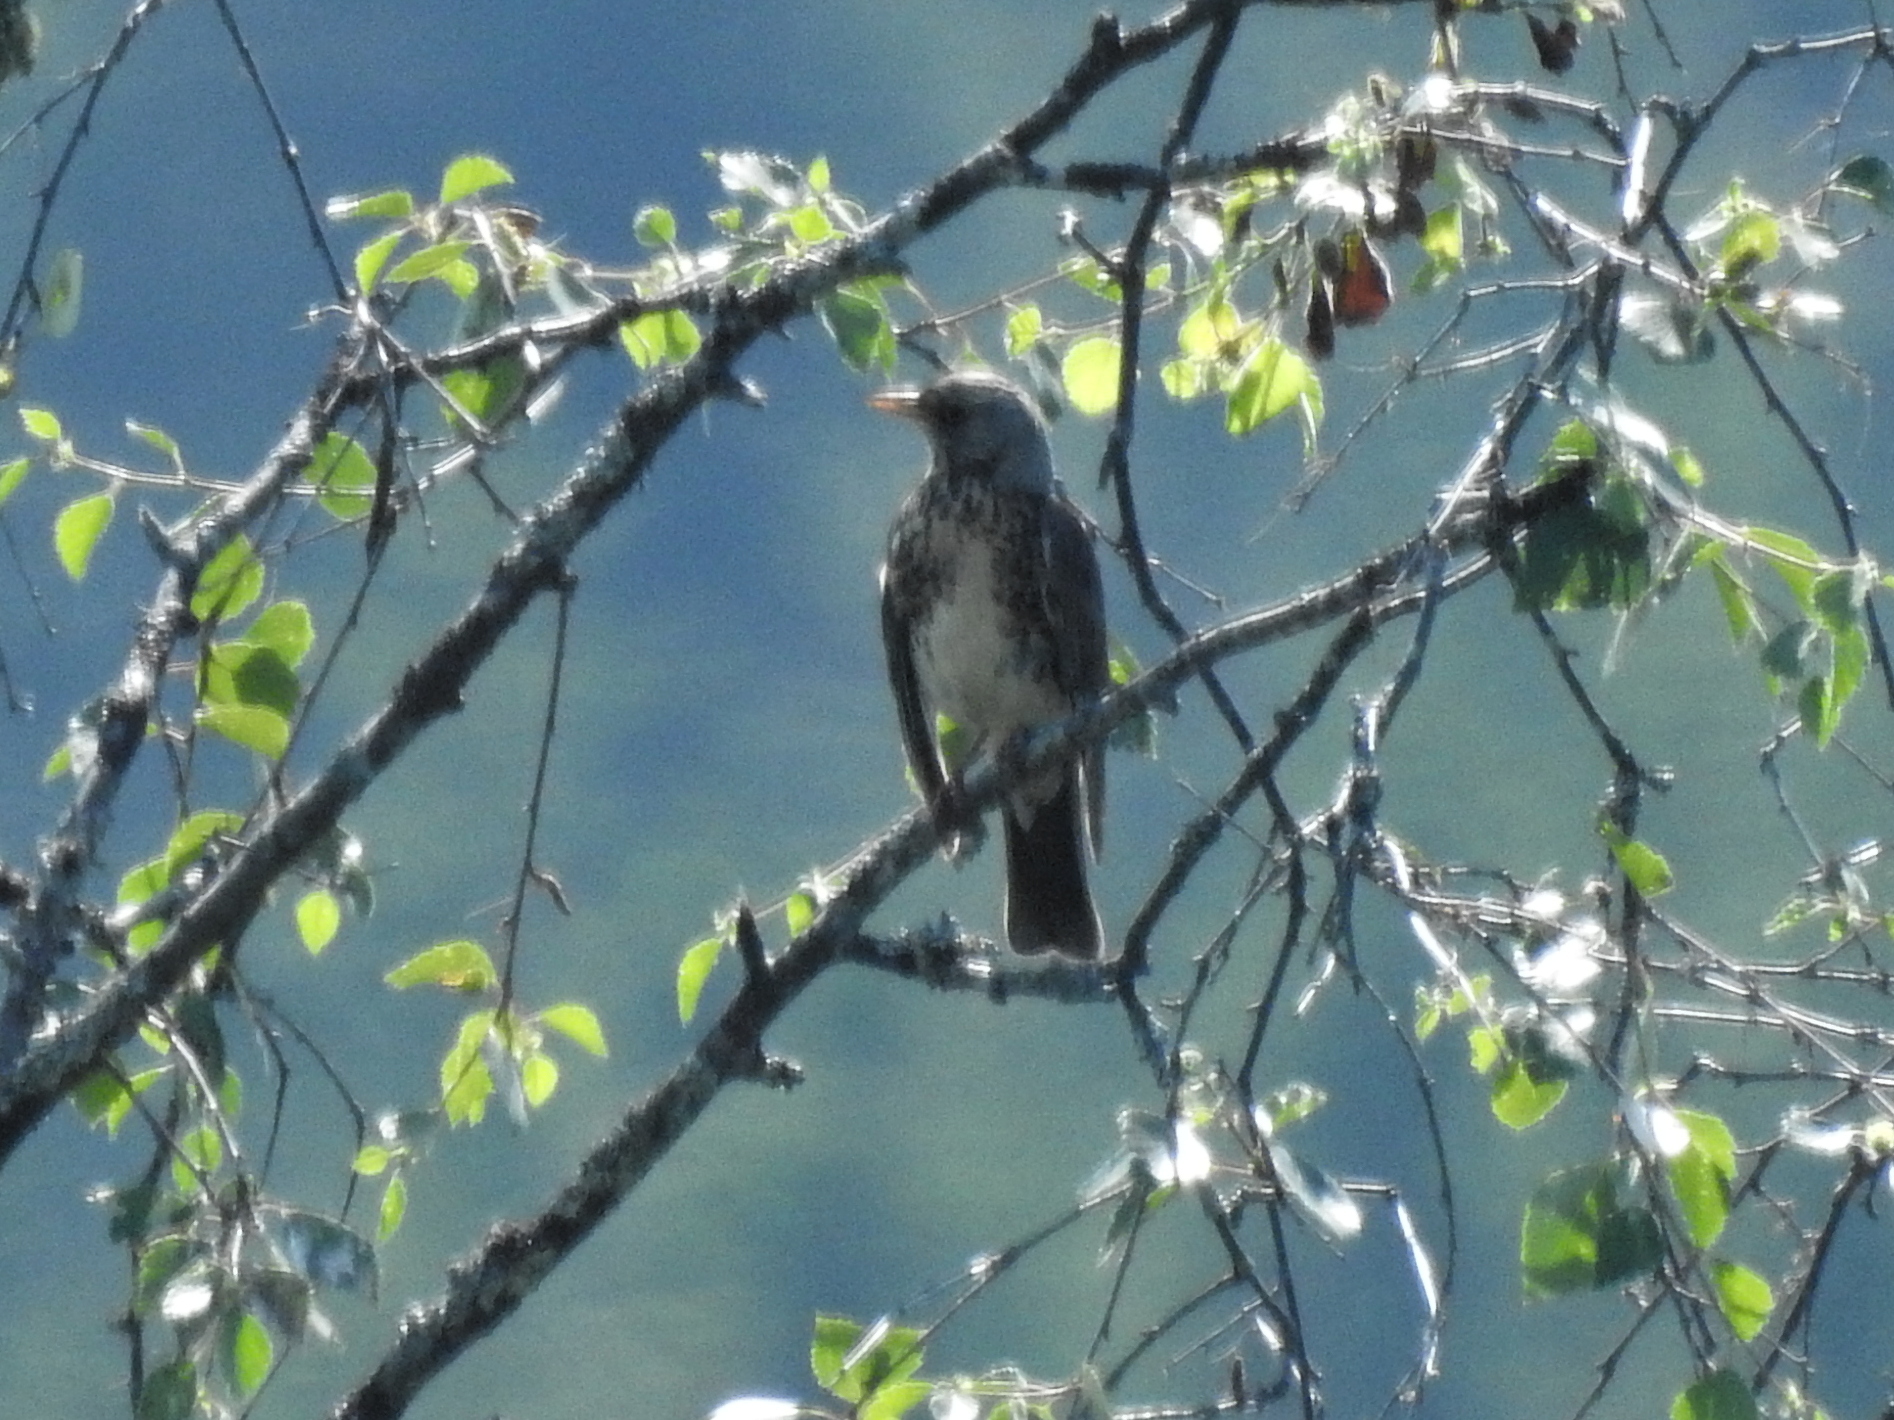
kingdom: Animalia
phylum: Chordata
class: Aves
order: Passeriformes
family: Turdidae
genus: Turdus
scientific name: Turdus pilaris
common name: Fieldfare
